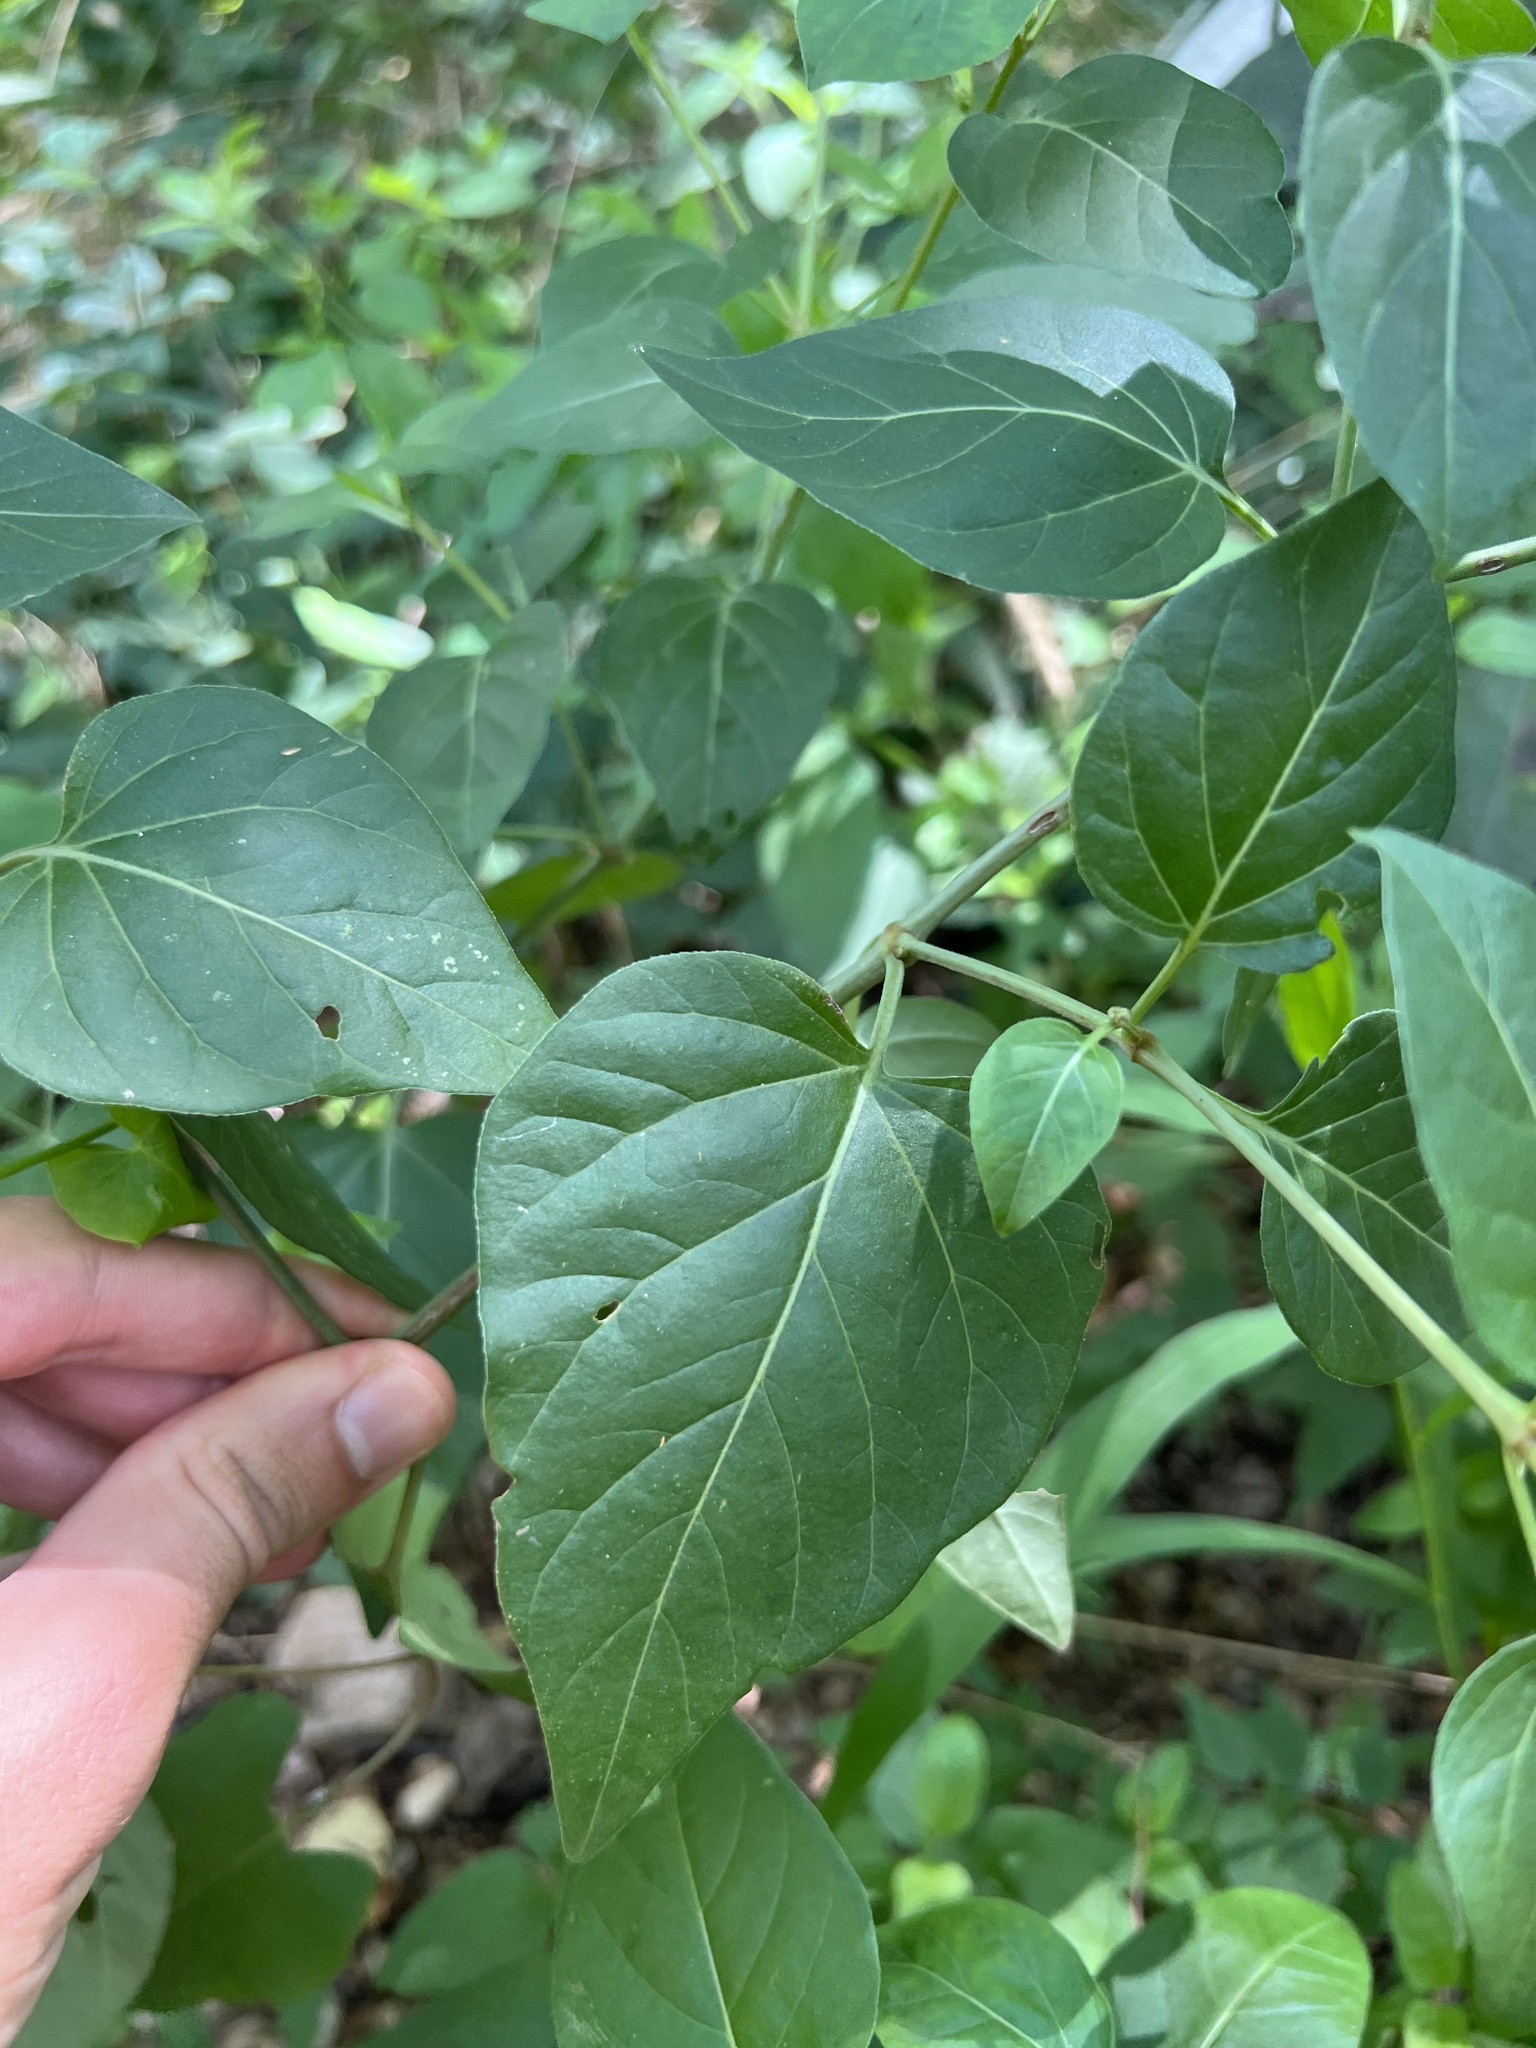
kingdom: Plantae
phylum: Tracheophyta
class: Magnoliopsida
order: Caryophyllales
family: Nyctaginaceae
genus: Mirabilis
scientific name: Mirabilis nyctaginea
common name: Umbrella wort
